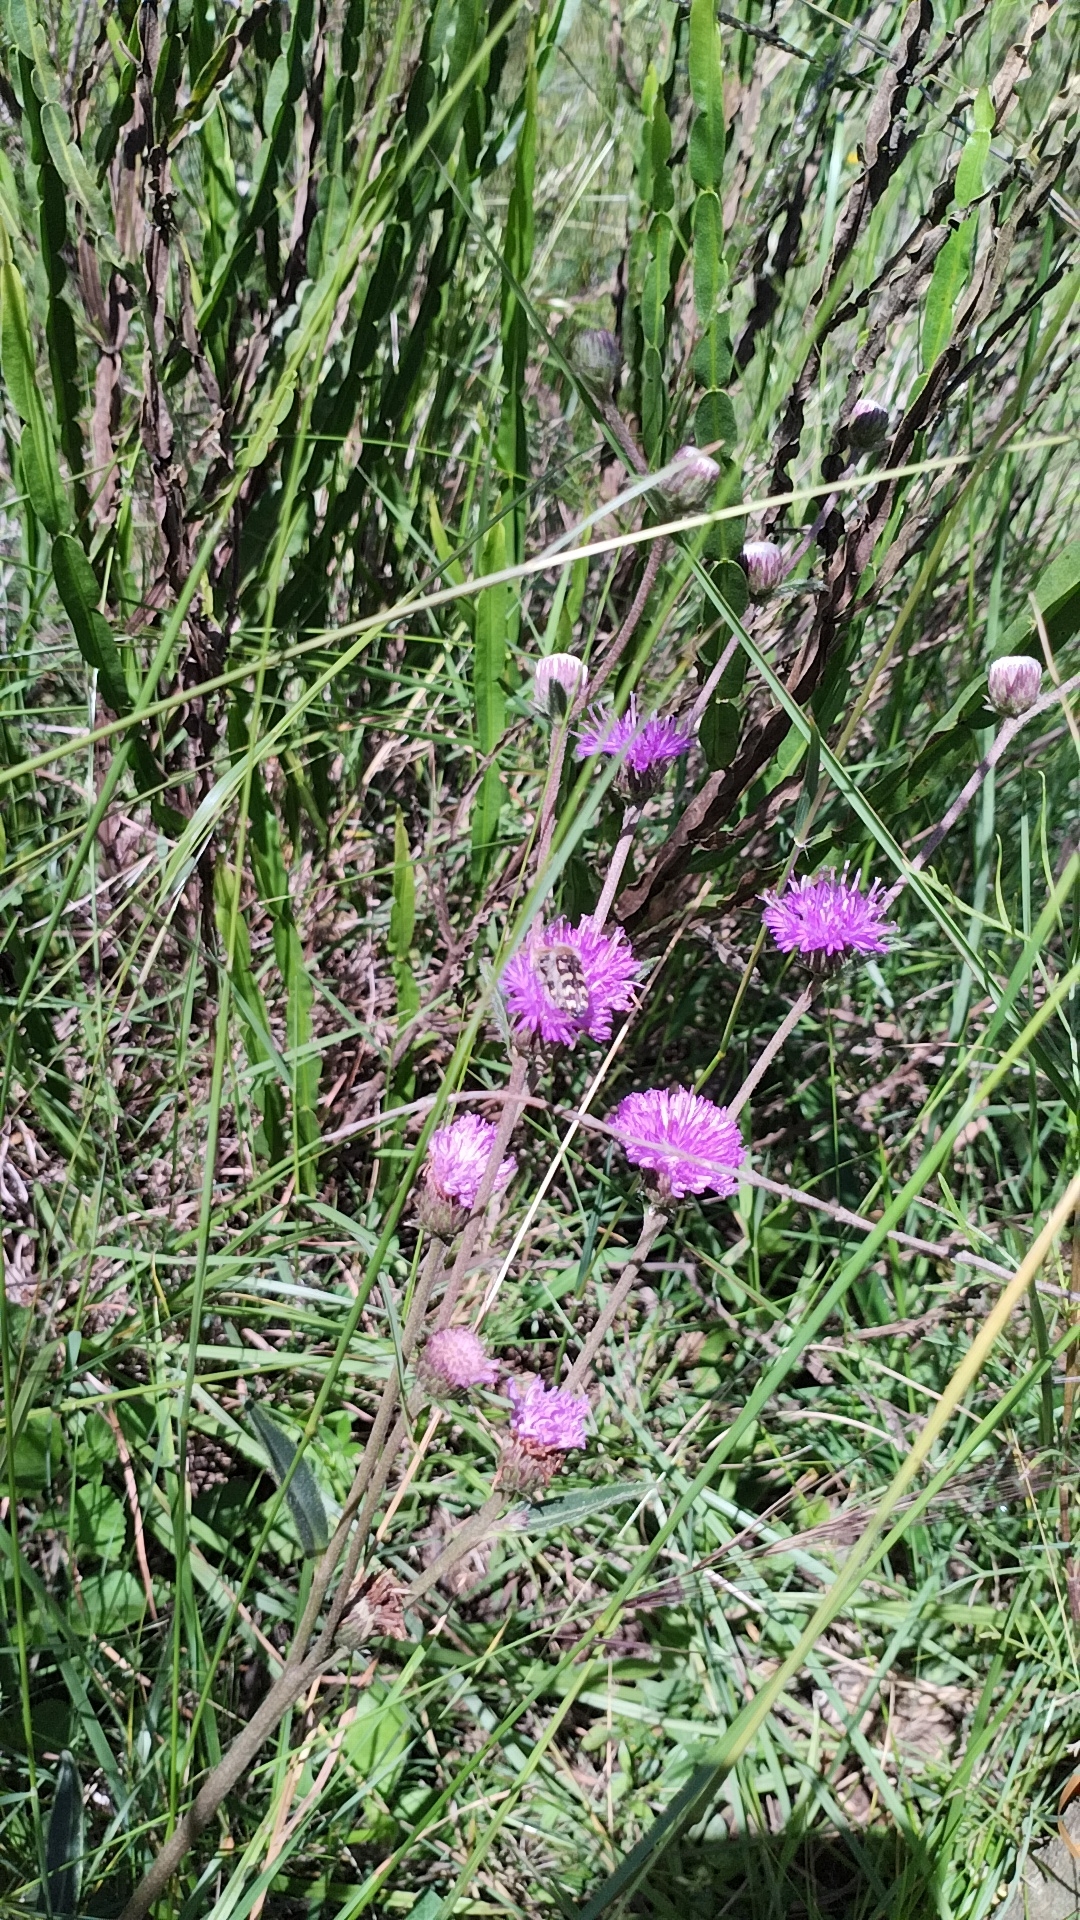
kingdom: Plantae
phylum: Tracheophyta
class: Magnoliopsida
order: Asterales
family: Asteraceae
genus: Chrysolaena
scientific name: Chrysolaena flexuosa
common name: Zig-zag vernonia
